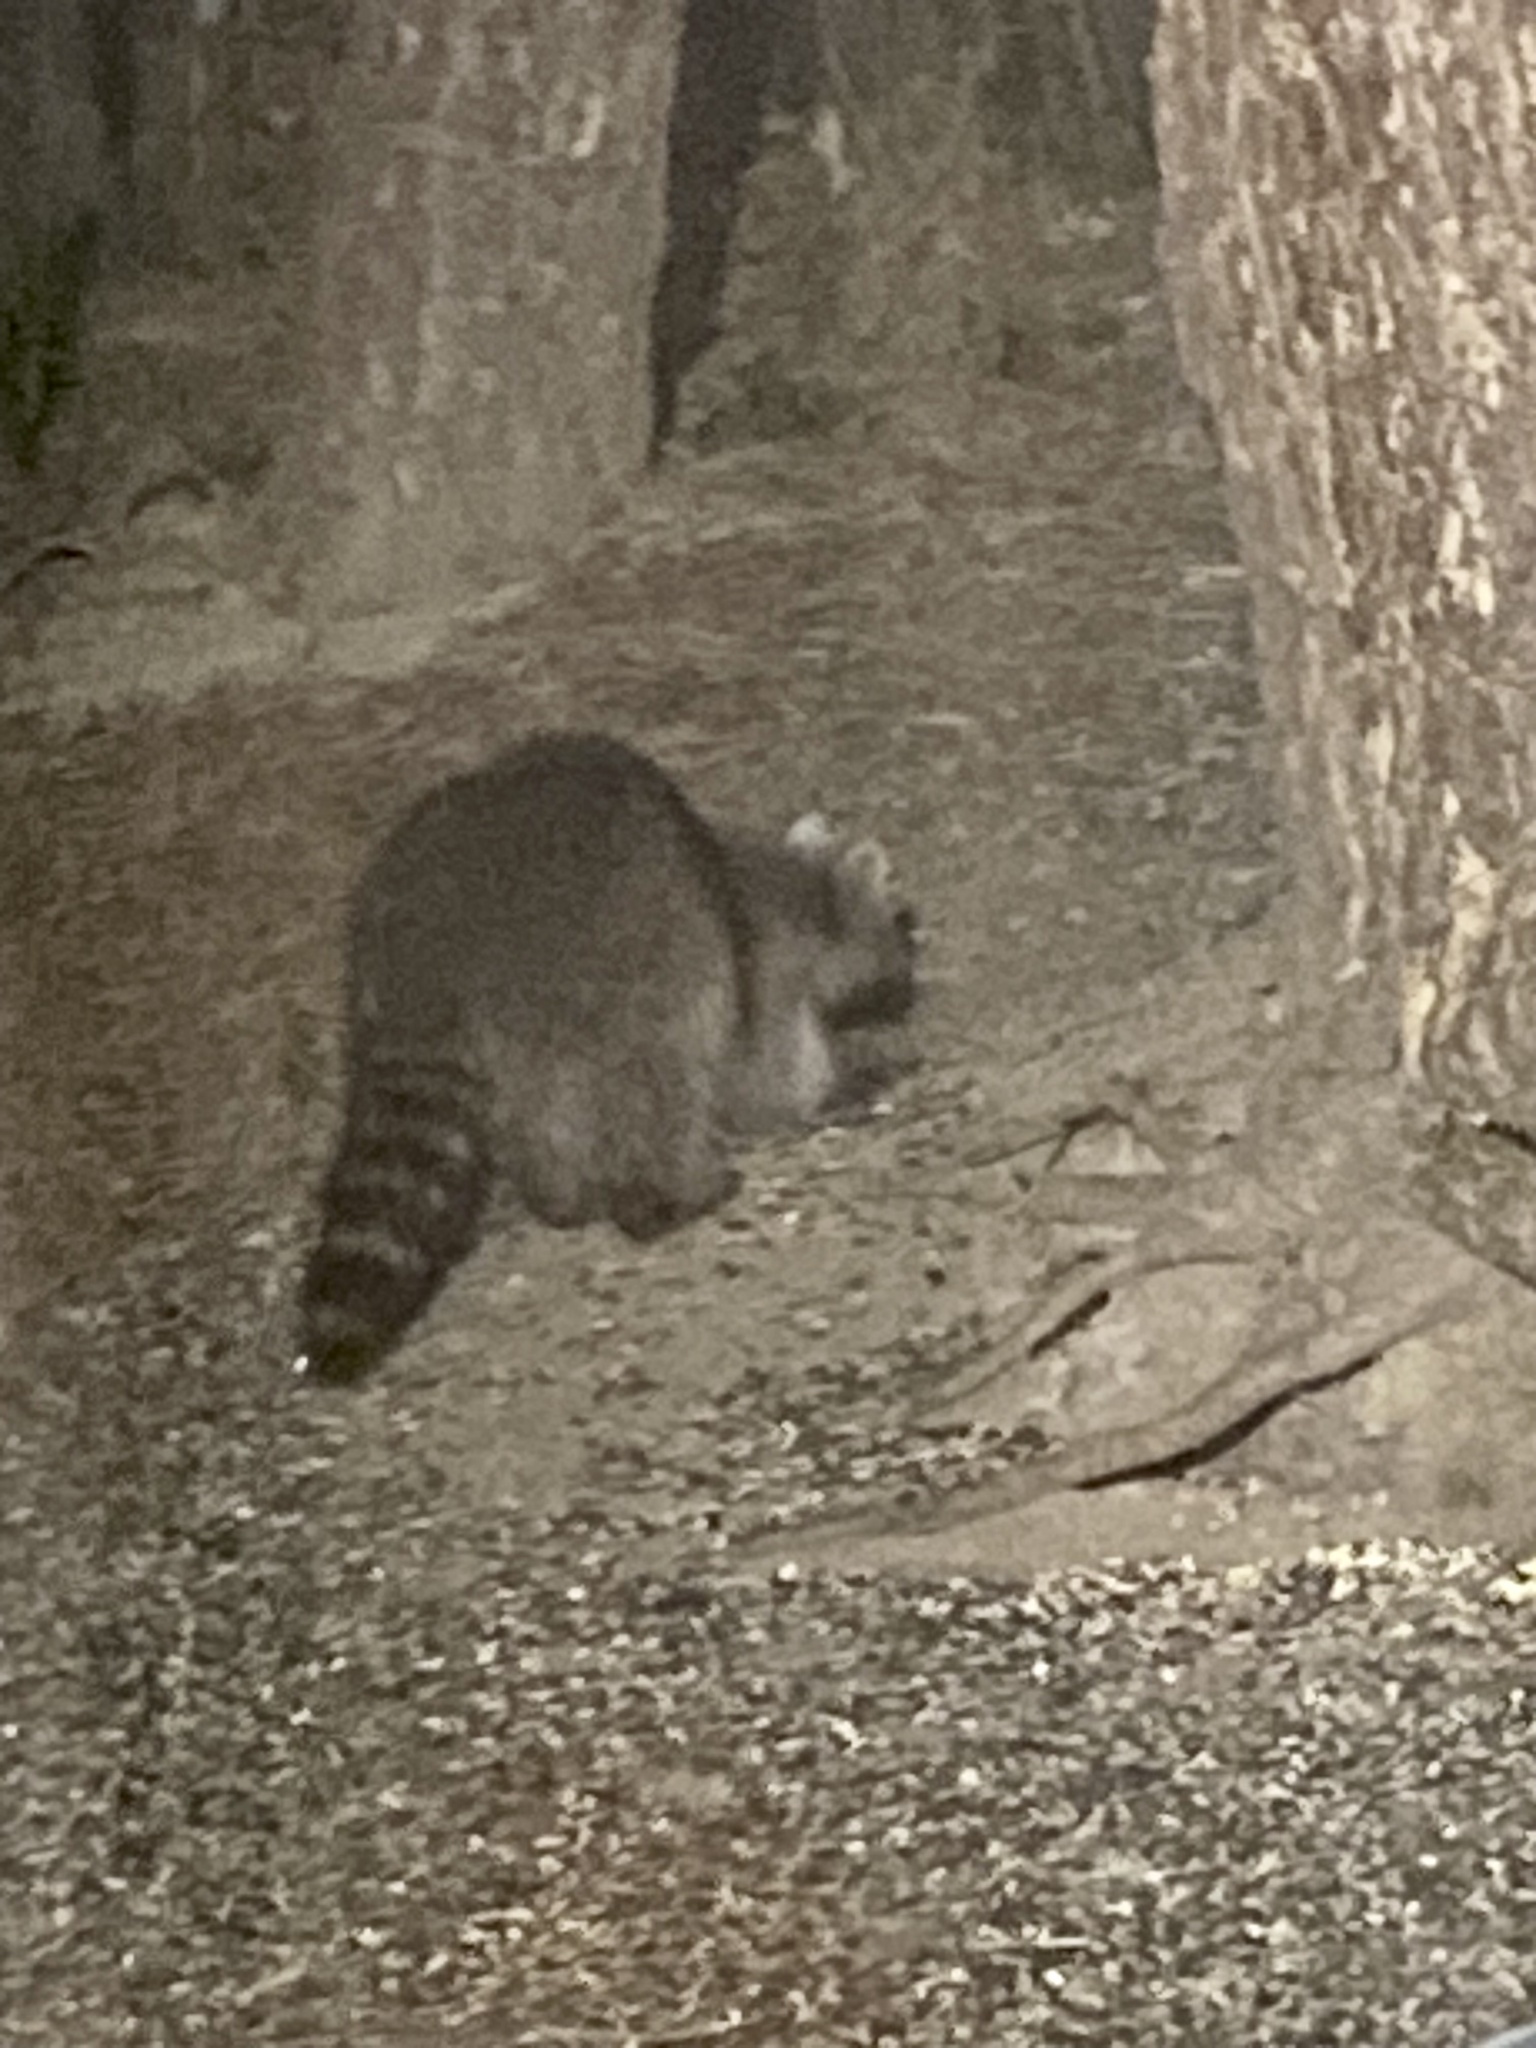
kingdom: Animalia
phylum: Chordata
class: Mammalia
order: Carnivora
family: Procyonidae
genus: Procyon
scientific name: Procyon lotor
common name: Raccoon
